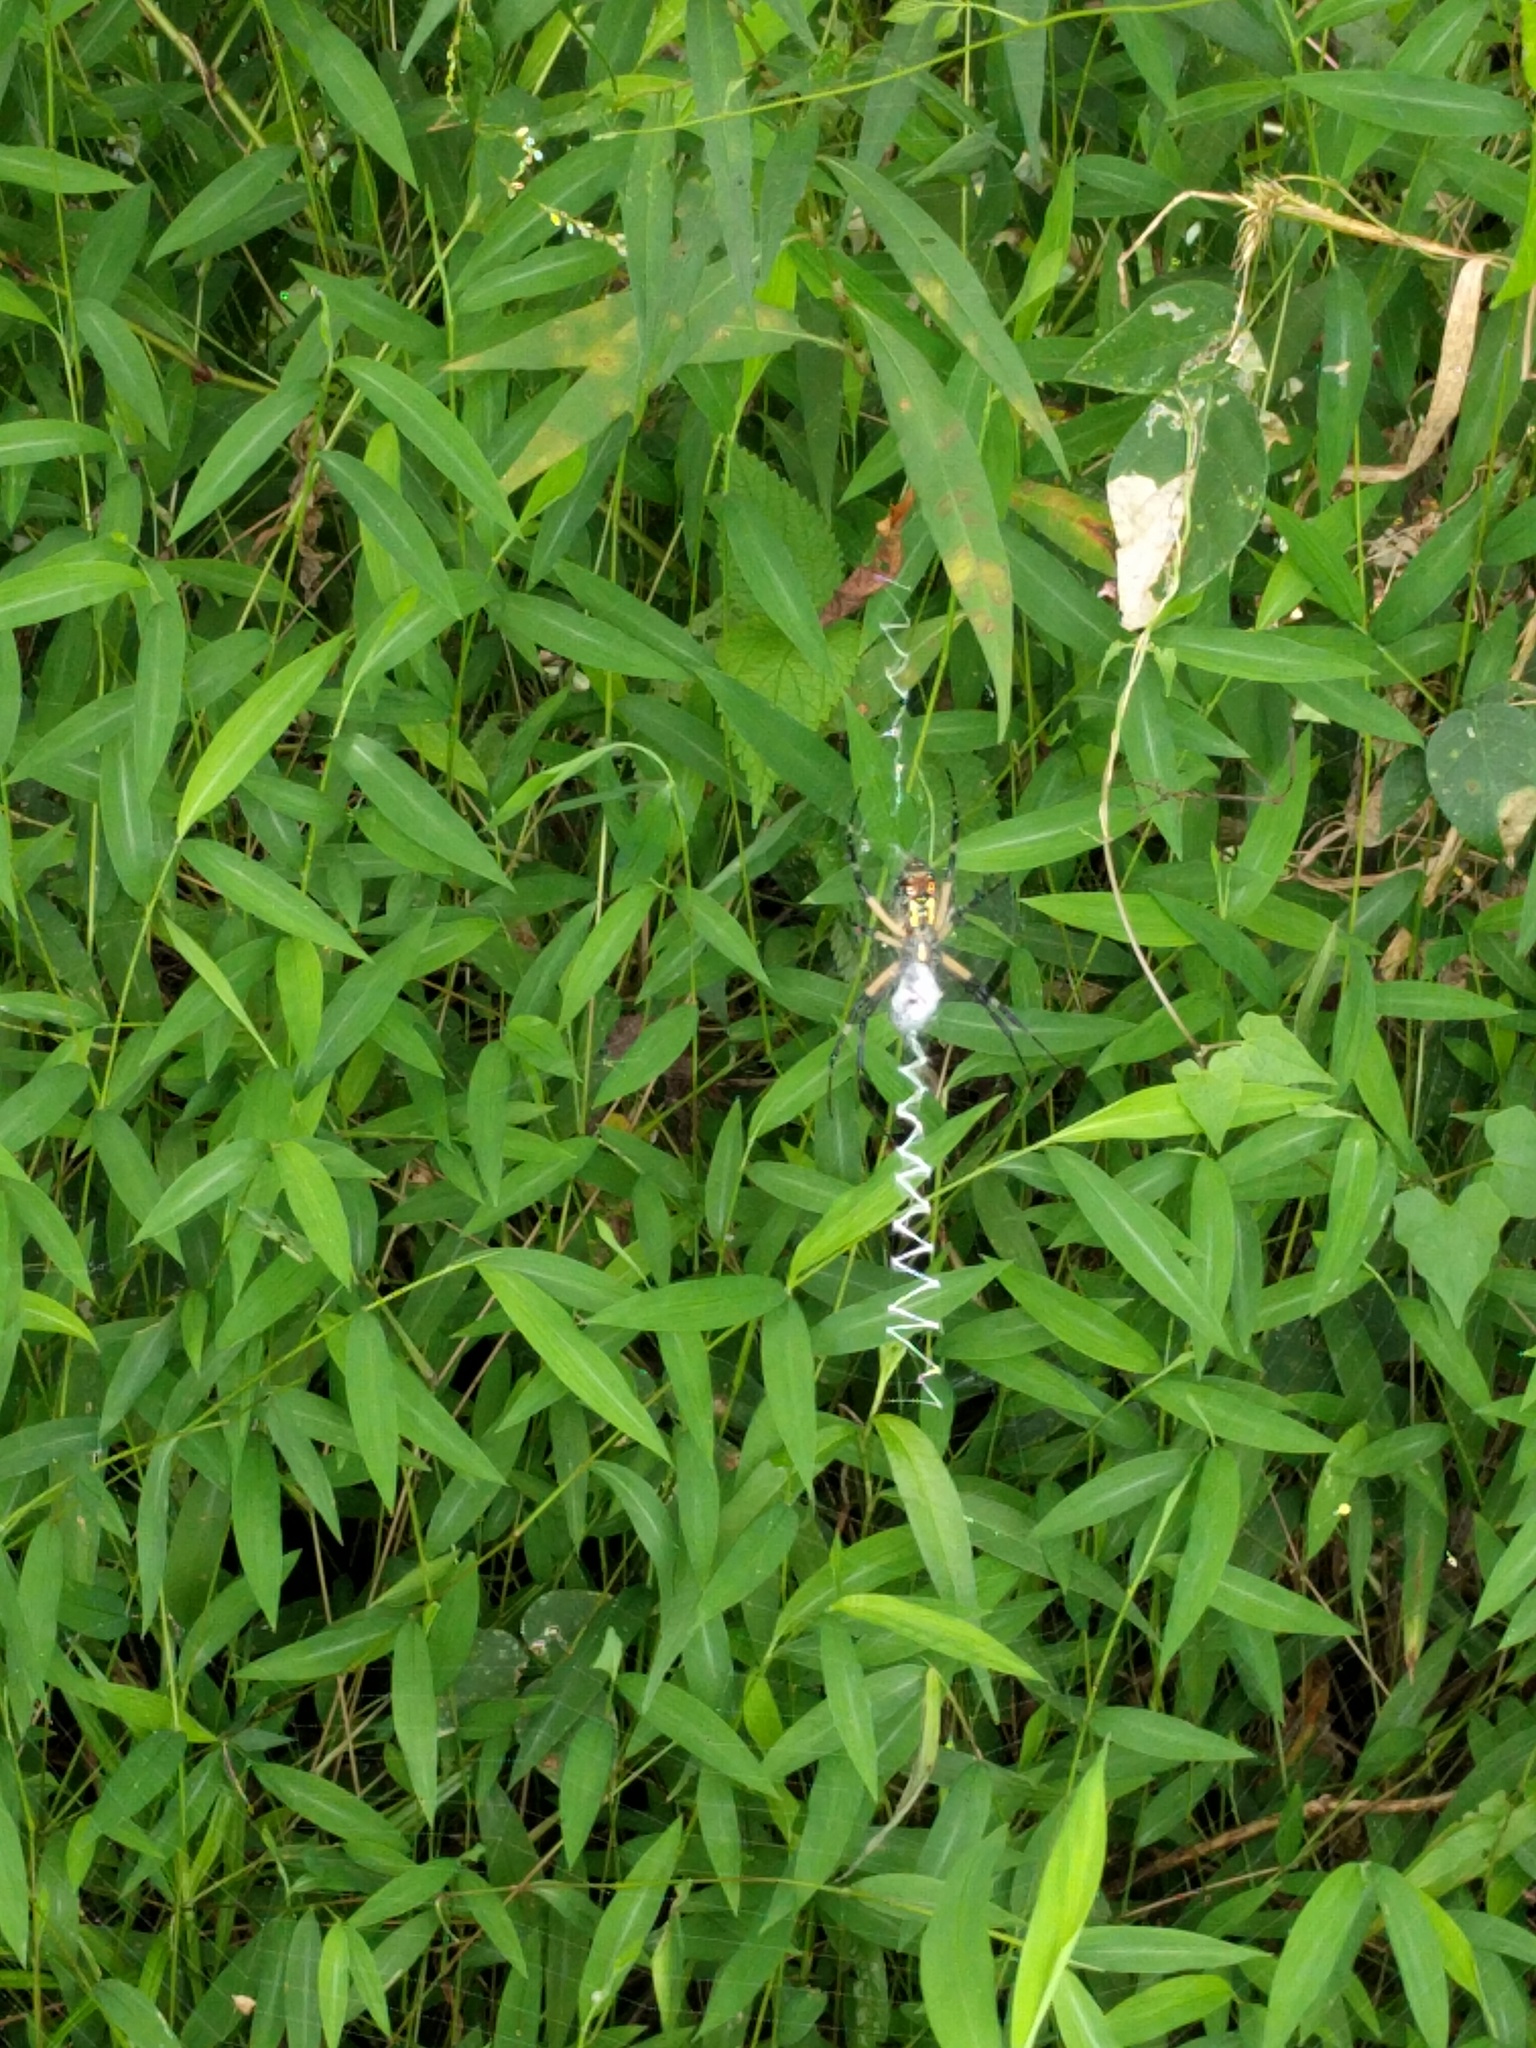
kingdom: Animalia
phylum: Arthropoda
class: Arachnida
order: Araneae
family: Araneidae
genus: Argiope
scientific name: Argiope aurantia
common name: Orb weavers
